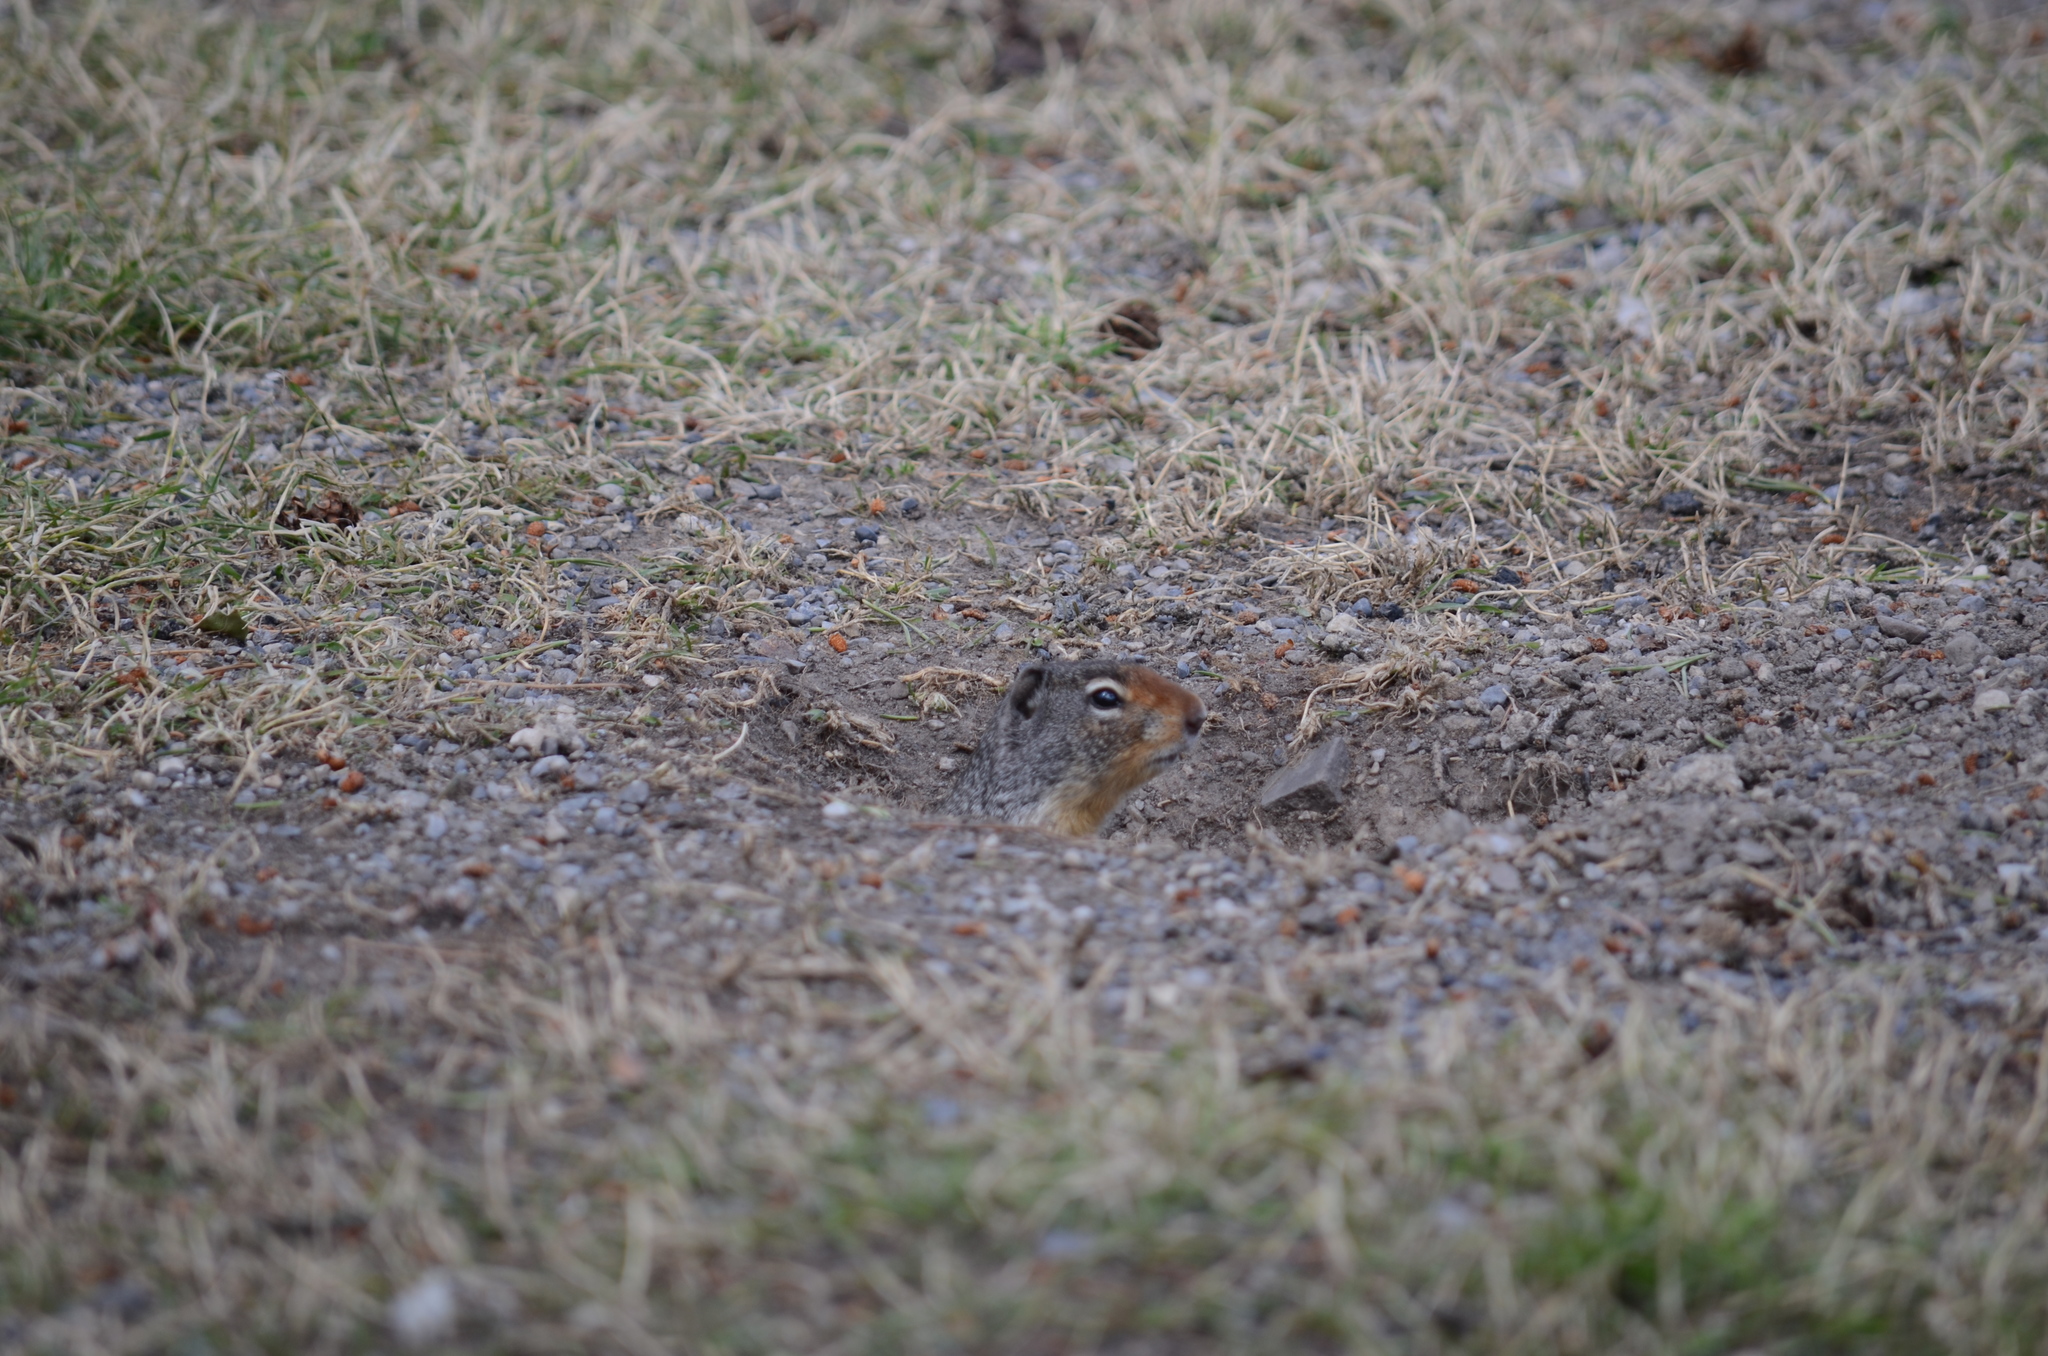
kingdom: Animalia
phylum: Chordata
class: Mammalia
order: Rodentia
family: Sciuridae
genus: Urocitellus
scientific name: Urocitellus columbianus
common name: Columbian ground squirrel
